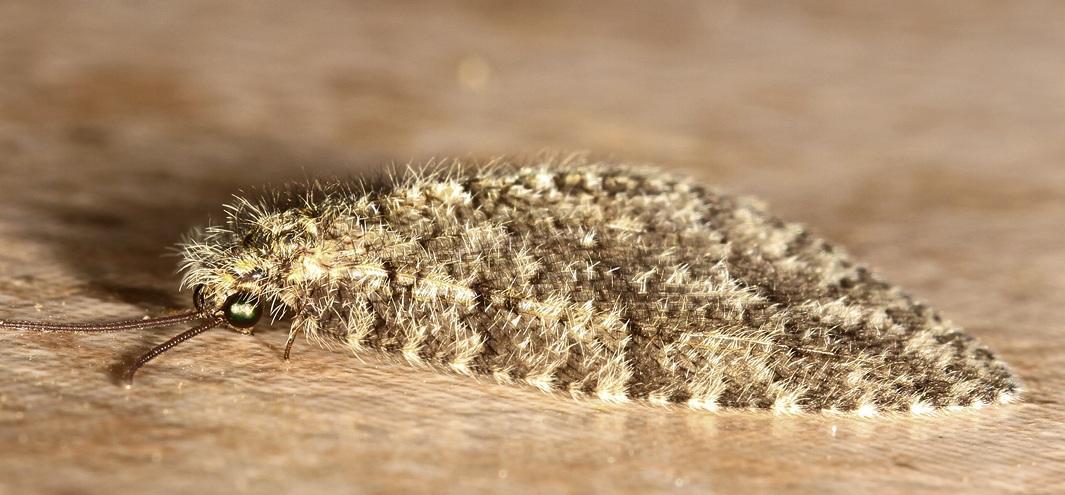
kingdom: Animalia
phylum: Arthropoda
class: Insecta
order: Neuroptera
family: Psychopsidae
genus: Silveira
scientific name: Silveira marshalli
